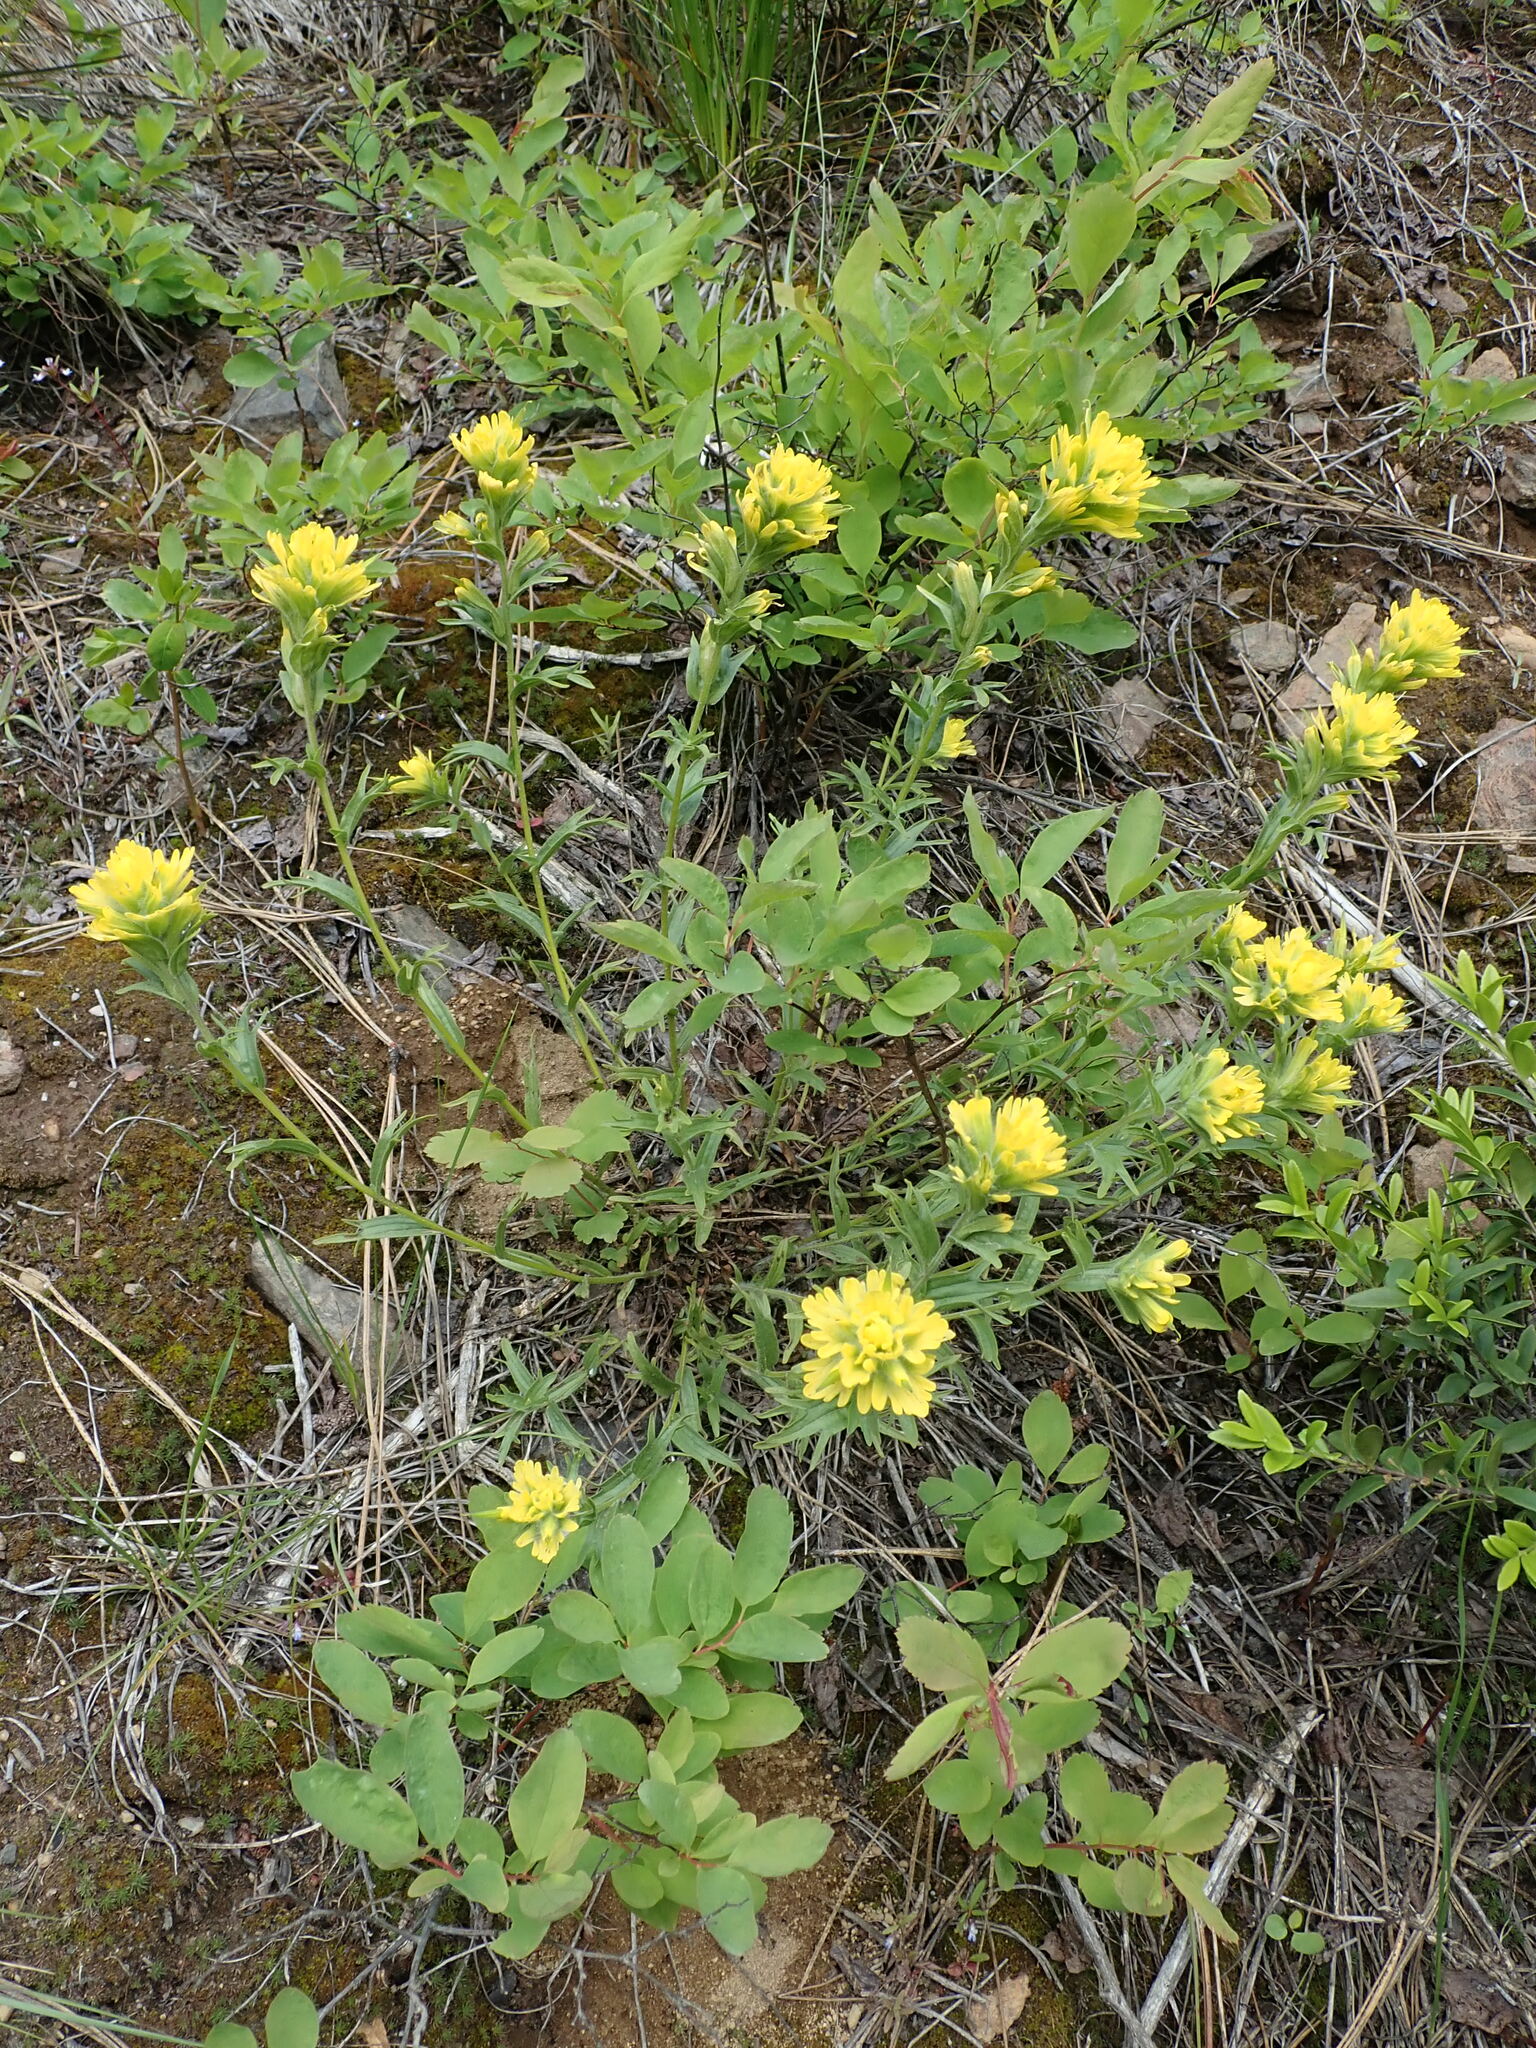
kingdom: Plantae
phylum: Tracheophyta
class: Magnoliopsida
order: Lamiales
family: Orobanchaceae
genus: Castilleja
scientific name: Castilleja hispida
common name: Bristly paintbrush
